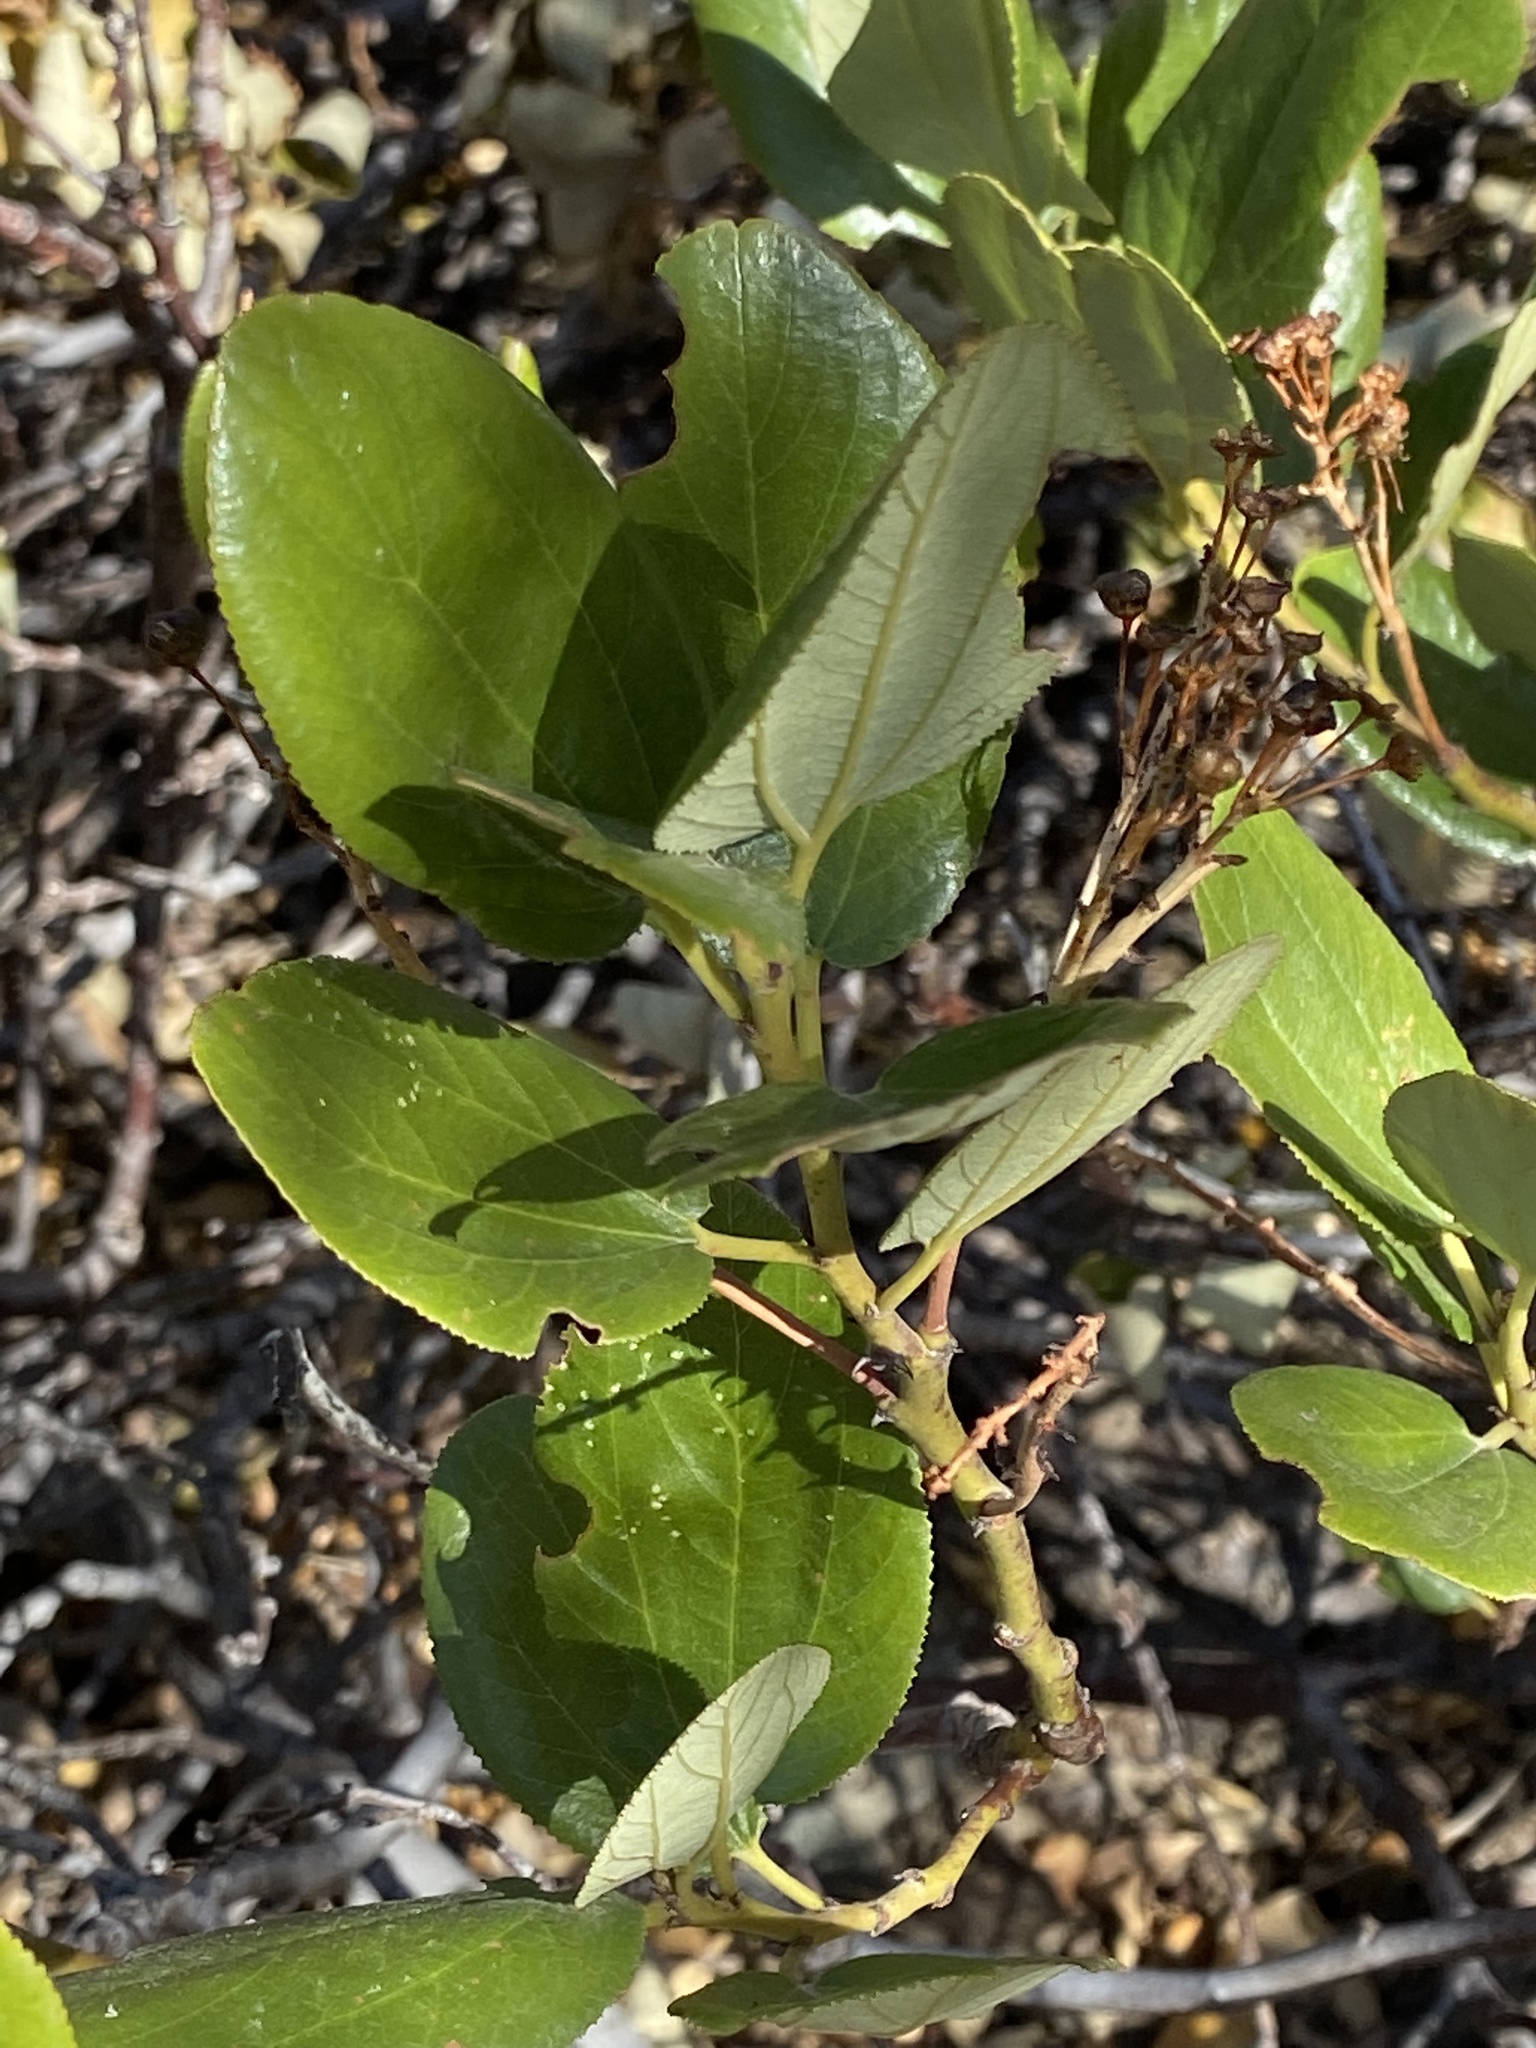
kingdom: Plantae
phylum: Tracheophyta
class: Magnoliopsida
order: Rosales
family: Rhamnaceae
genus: Ceanothus
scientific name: Ceanothus velutinus
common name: Snowbrush
